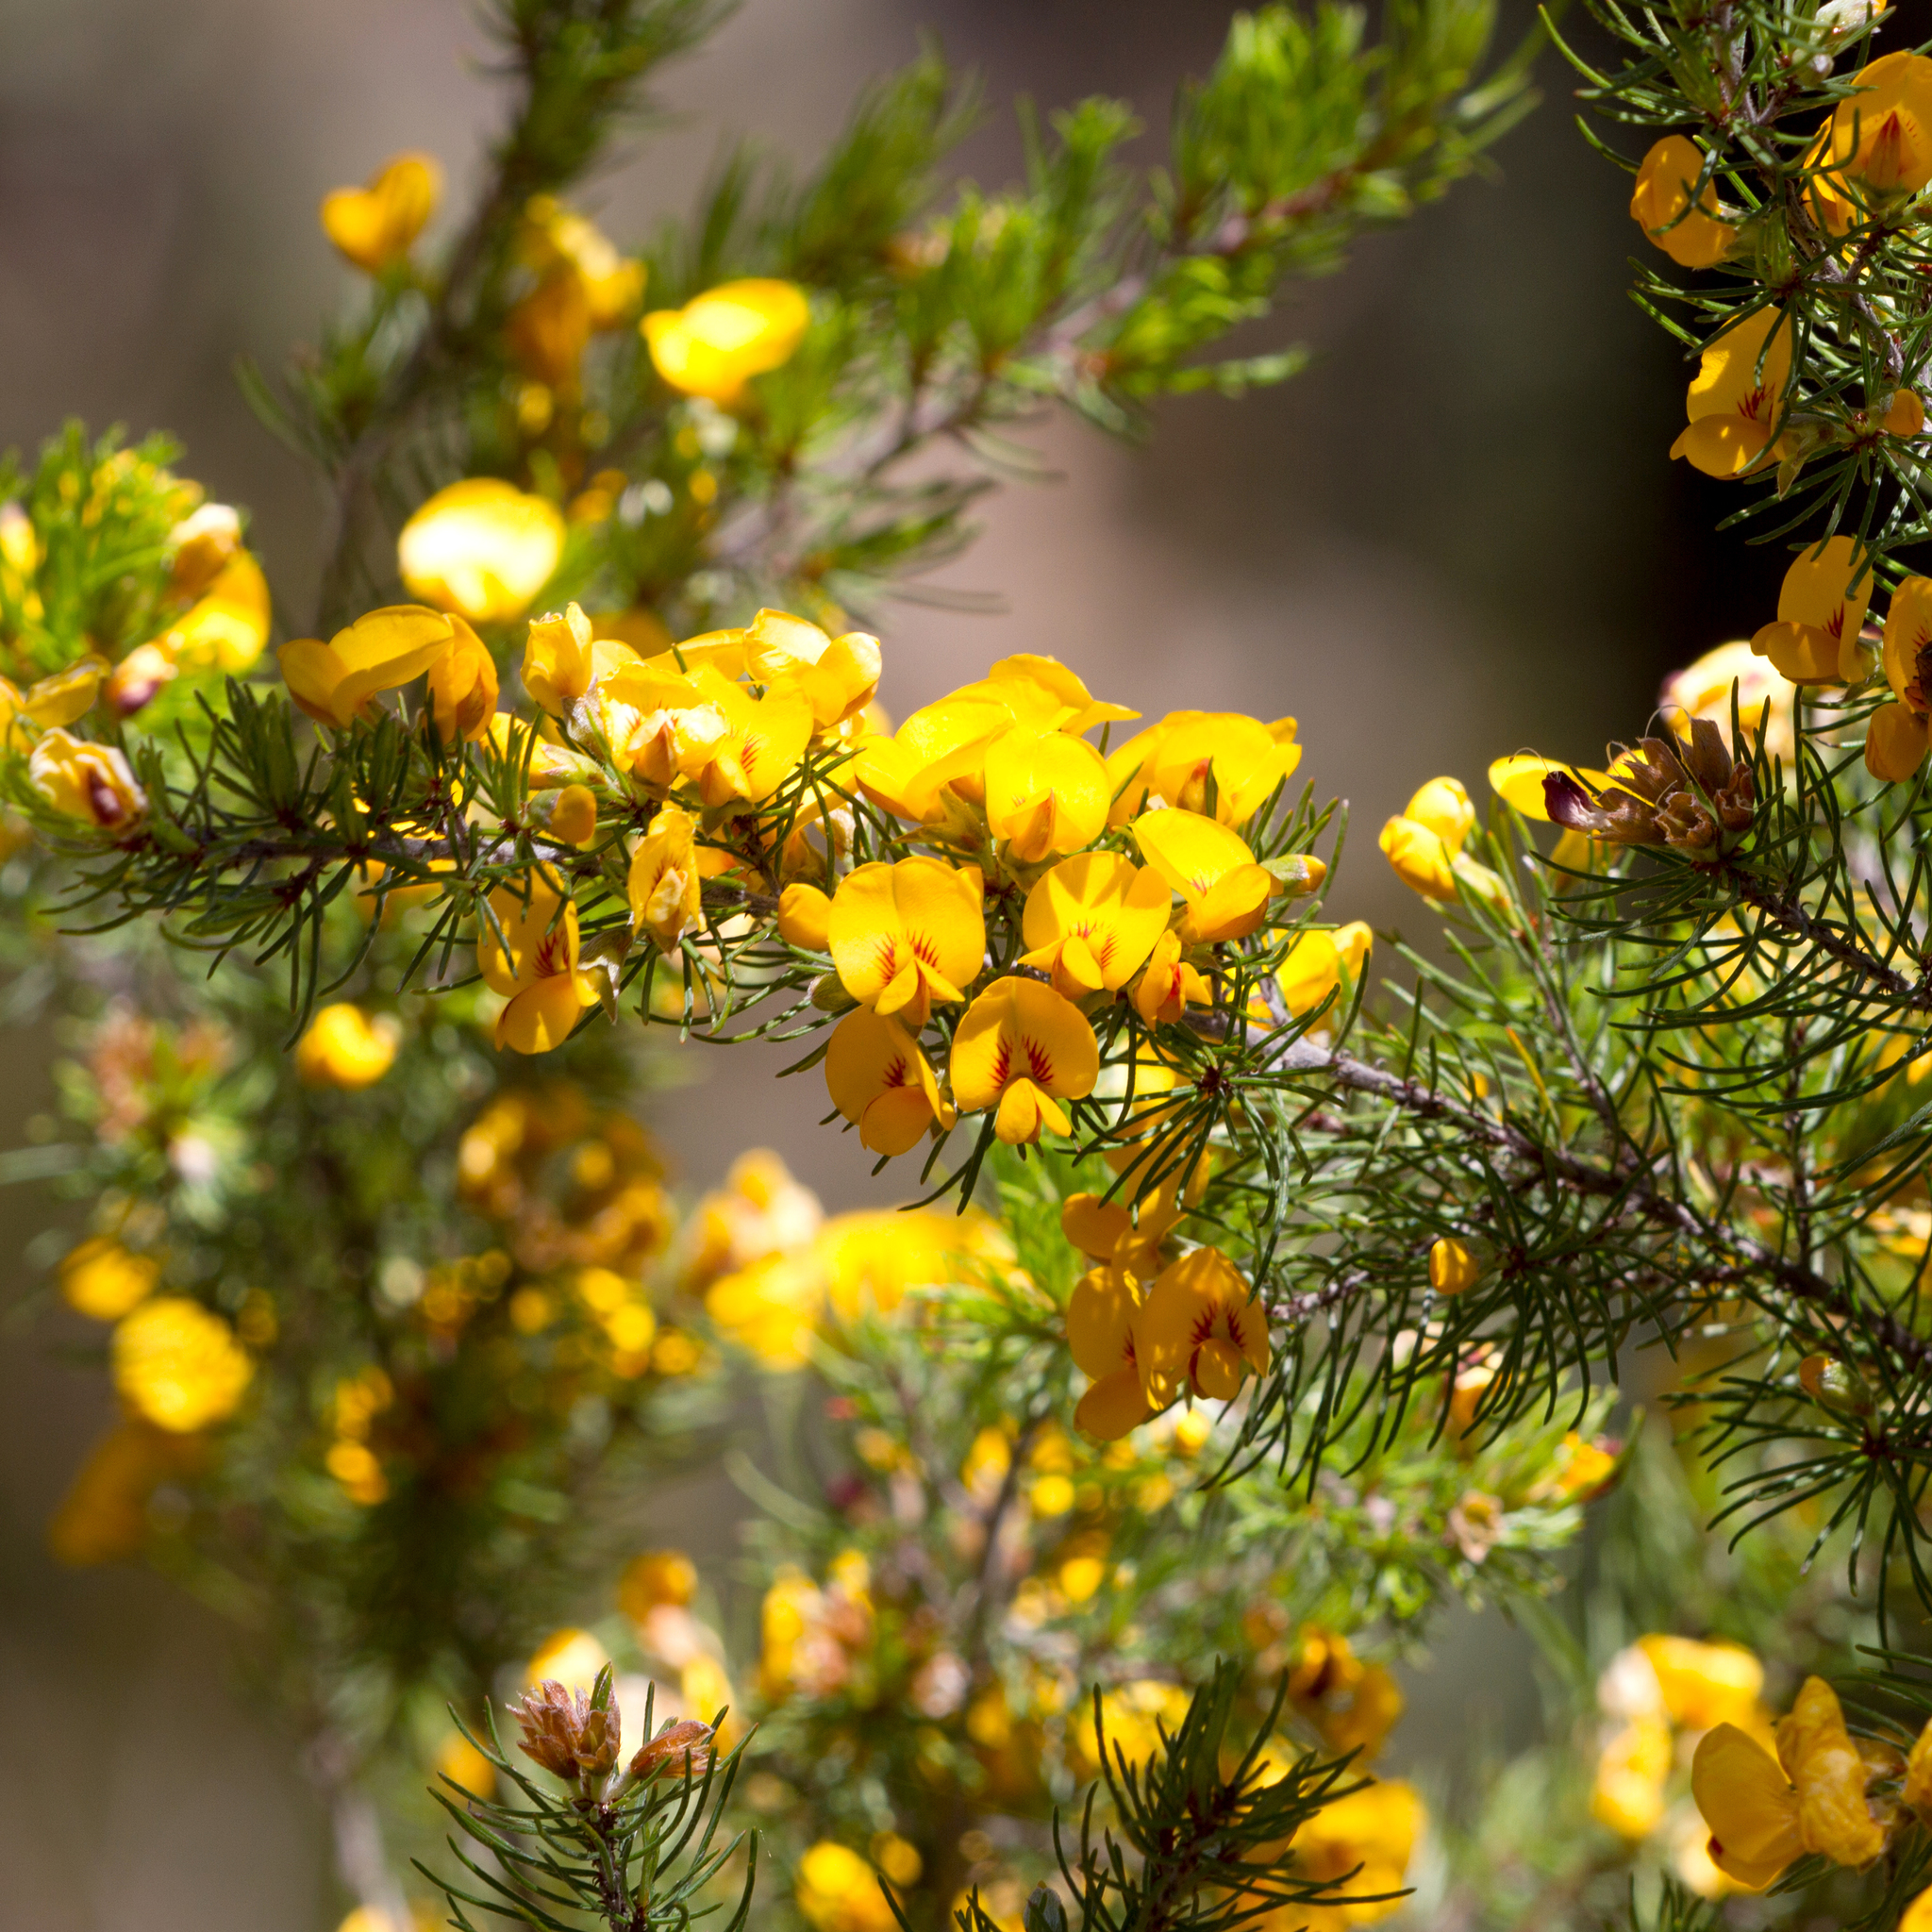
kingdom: Plantae
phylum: Tracheophyta
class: Magnoliopsida
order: Fabales
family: Fabaceae
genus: Pultenaea
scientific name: Pultenaea mollis
